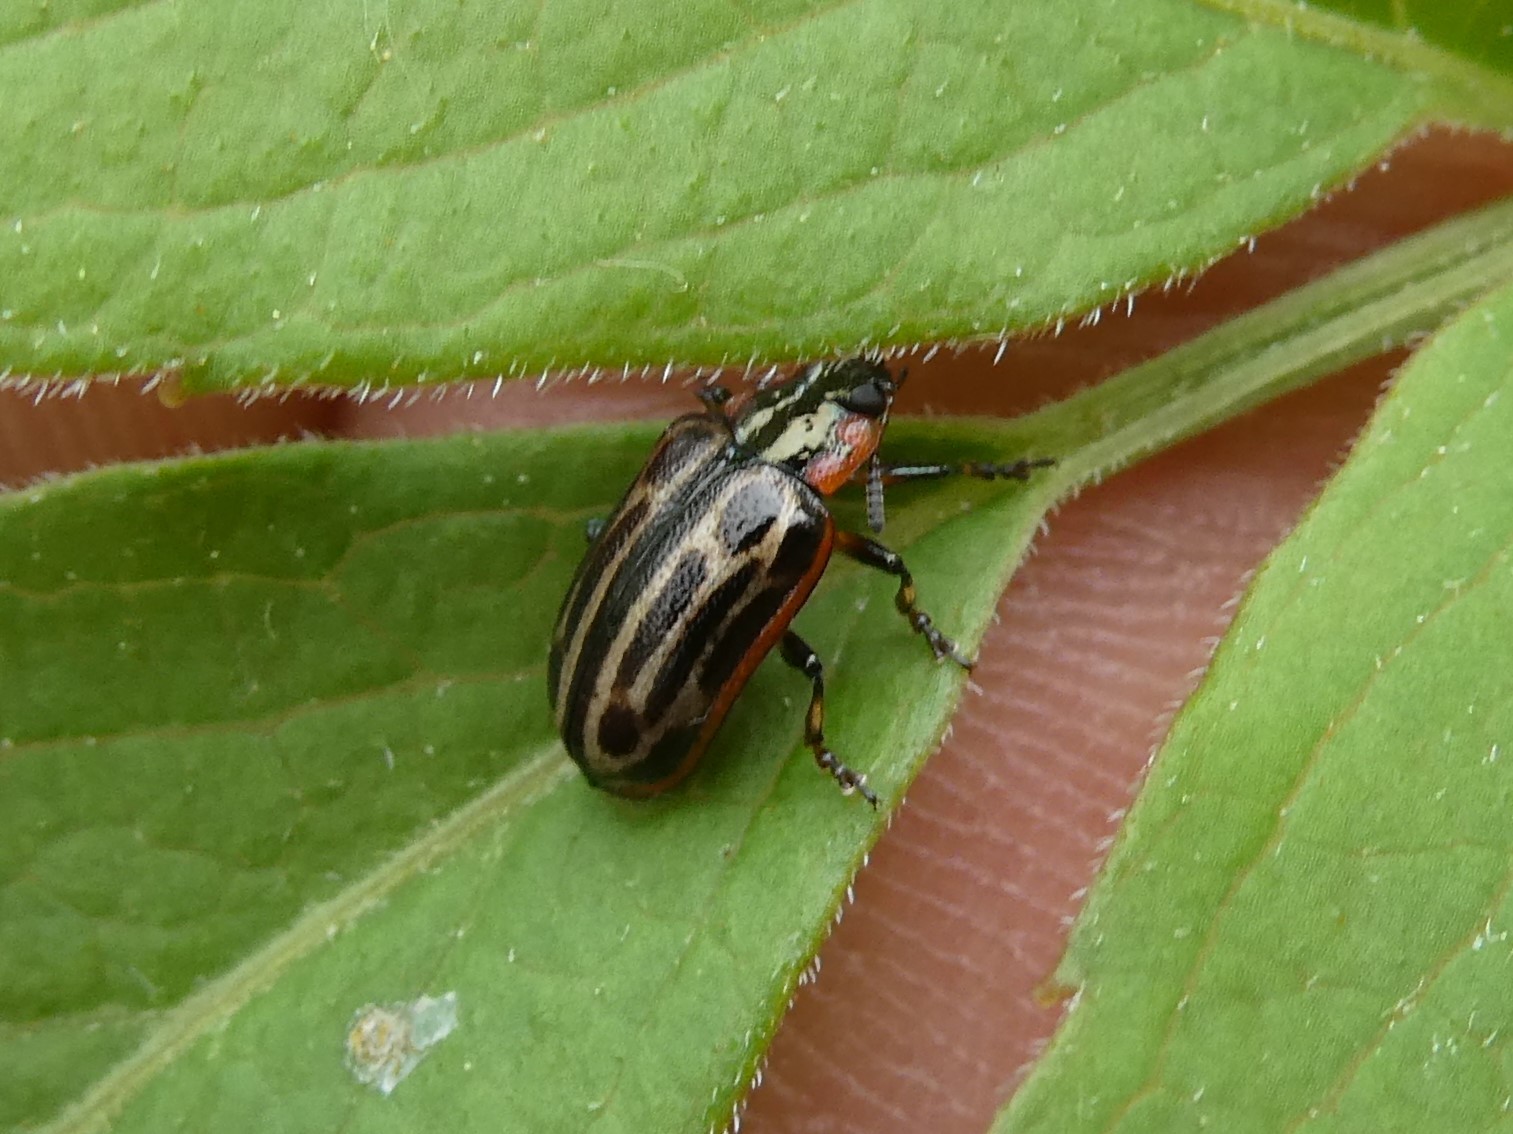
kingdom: Animalia
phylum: Arthropoda
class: Insecta
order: Coleoptera
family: Chrysomelidae
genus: Aethiopocassis
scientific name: Aethiopocassis scripta
